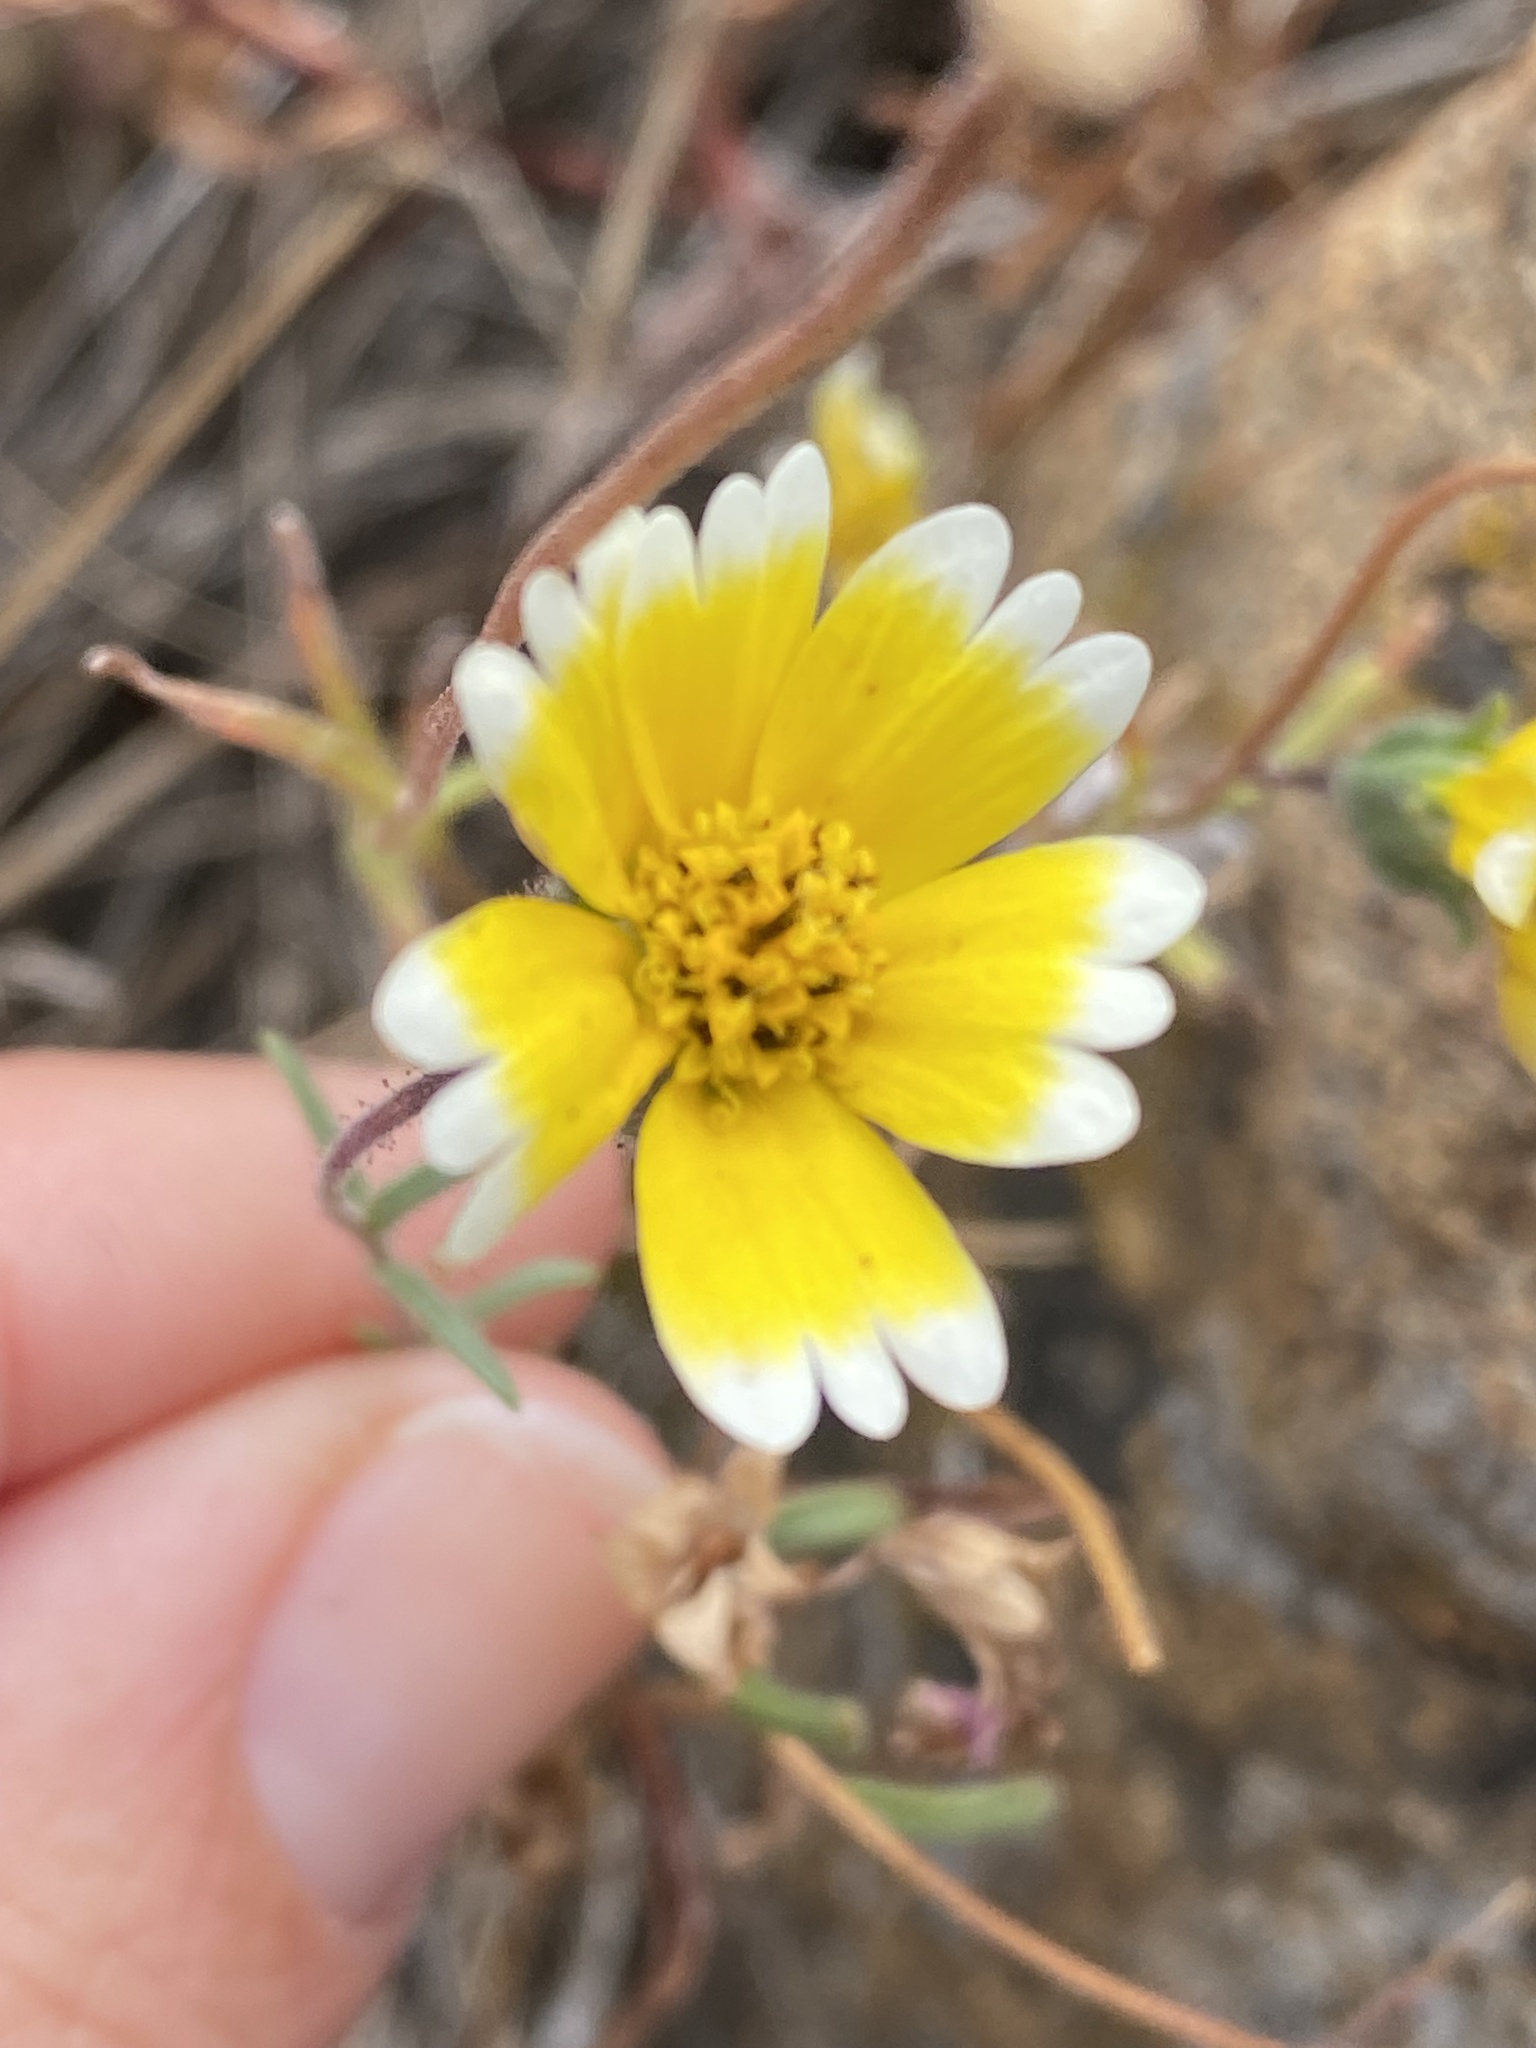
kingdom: Plantae
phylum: Tracheophyta
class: Magnoliopsida
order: Asterales
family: Asteraceae
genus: Layia
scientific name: Layia platyglossa
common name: Tidy-tips
